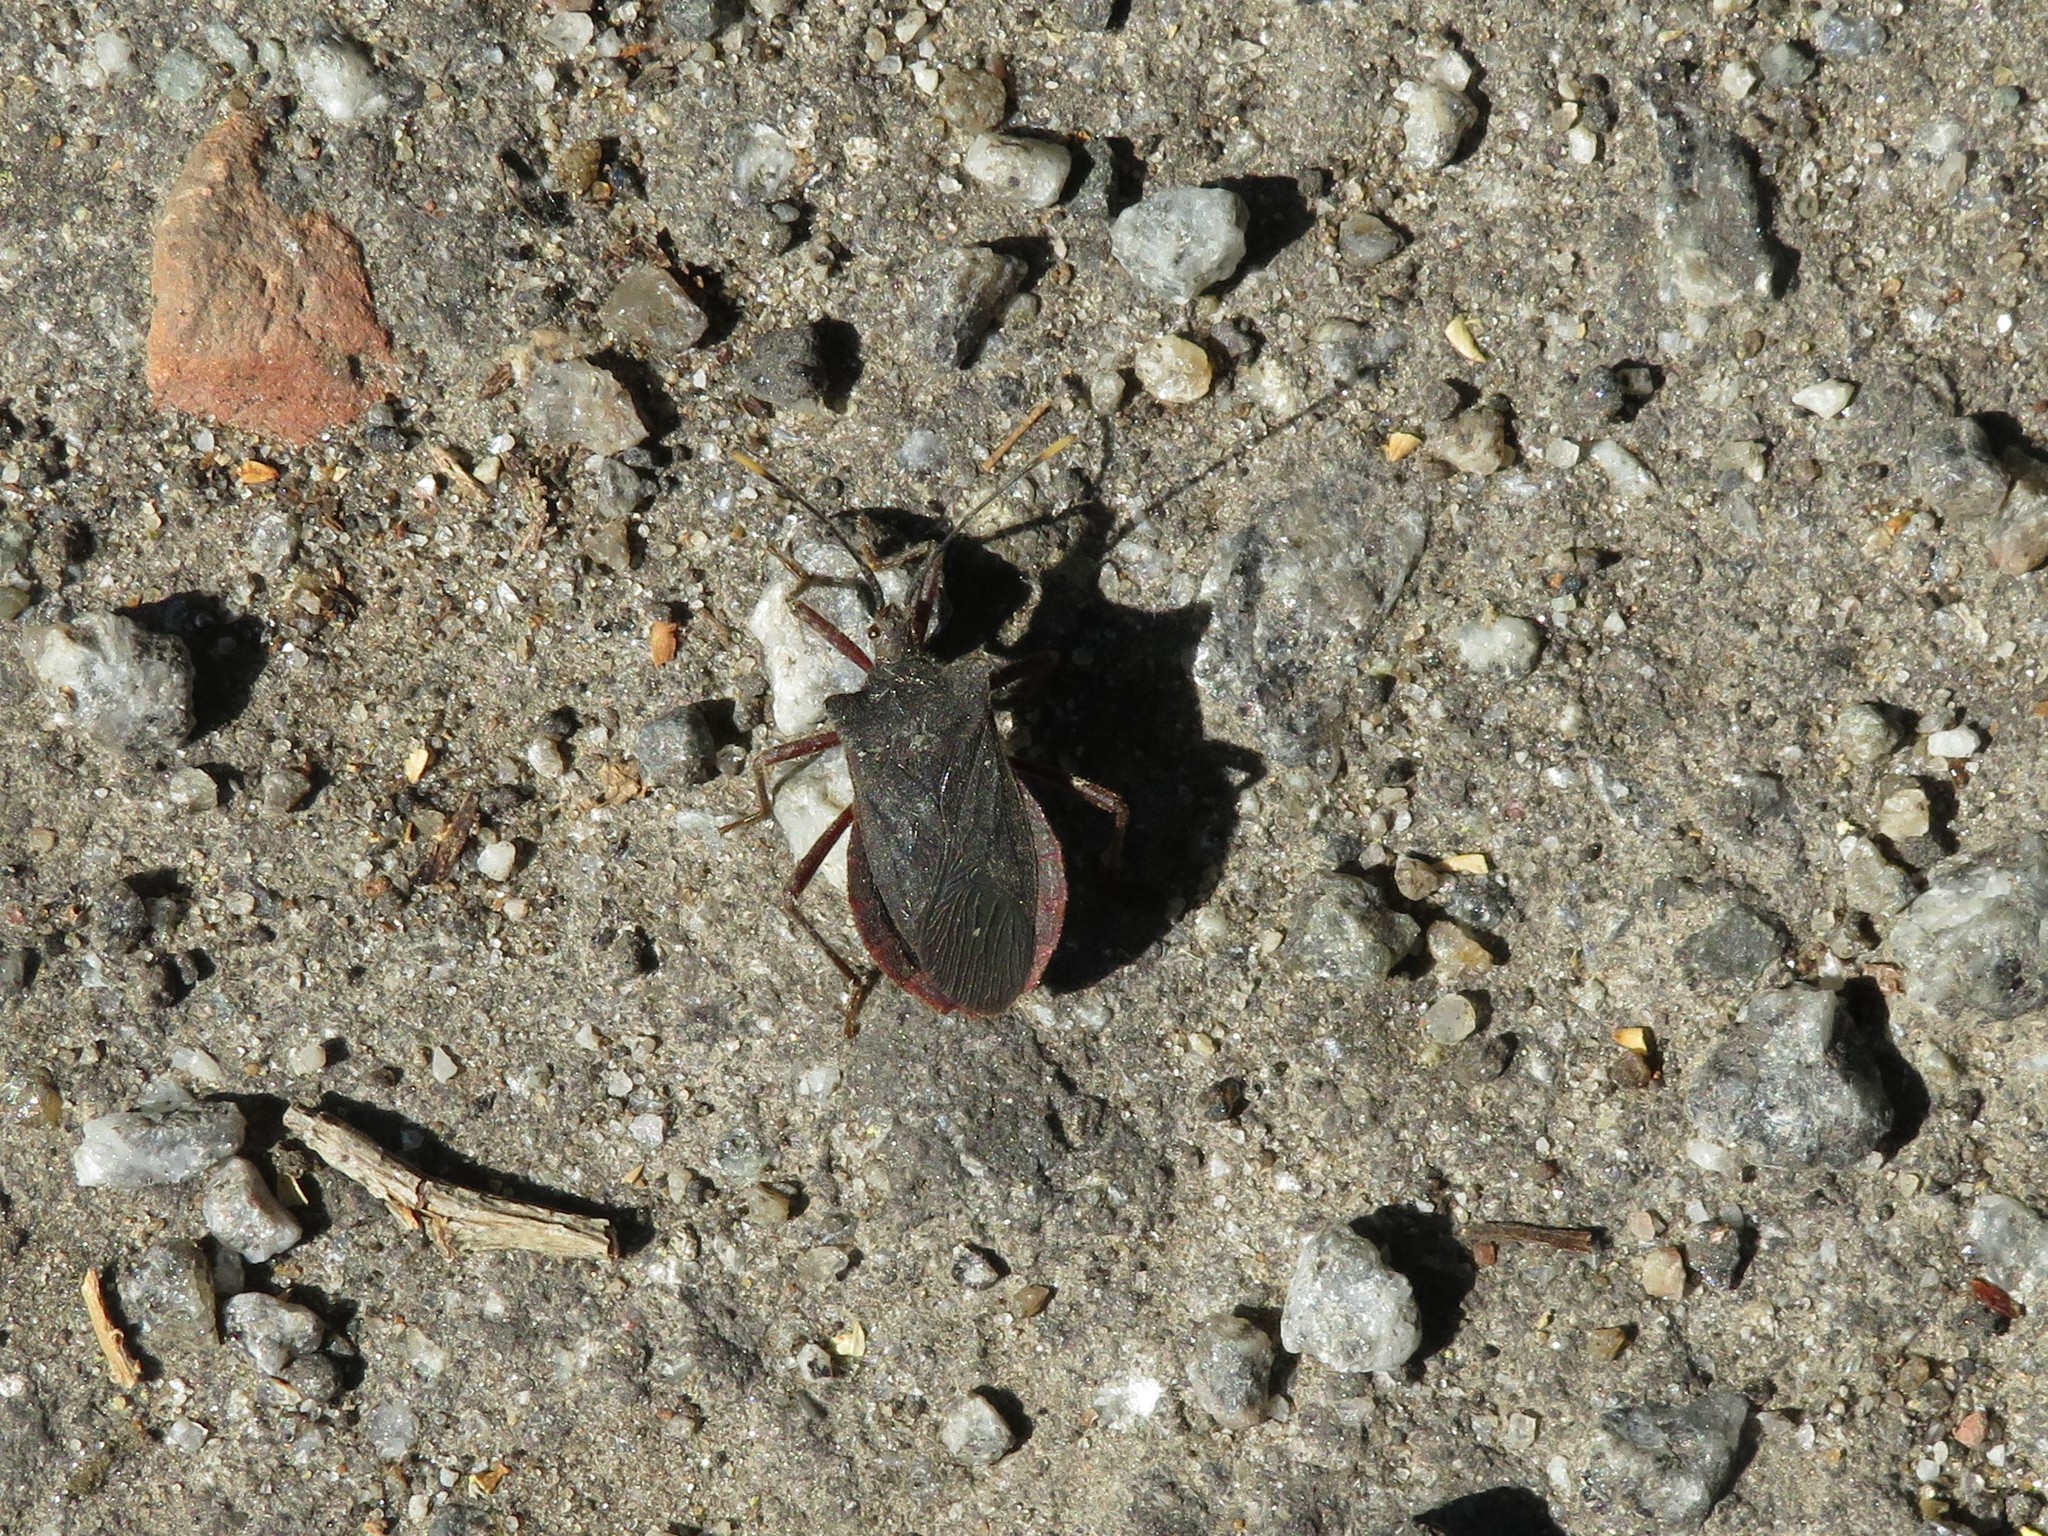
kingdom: Animalia
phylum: Arthropoda
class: Insecta
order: Hemiptera
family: Coreidae
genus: Anasa
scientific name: Anasa apicalis
